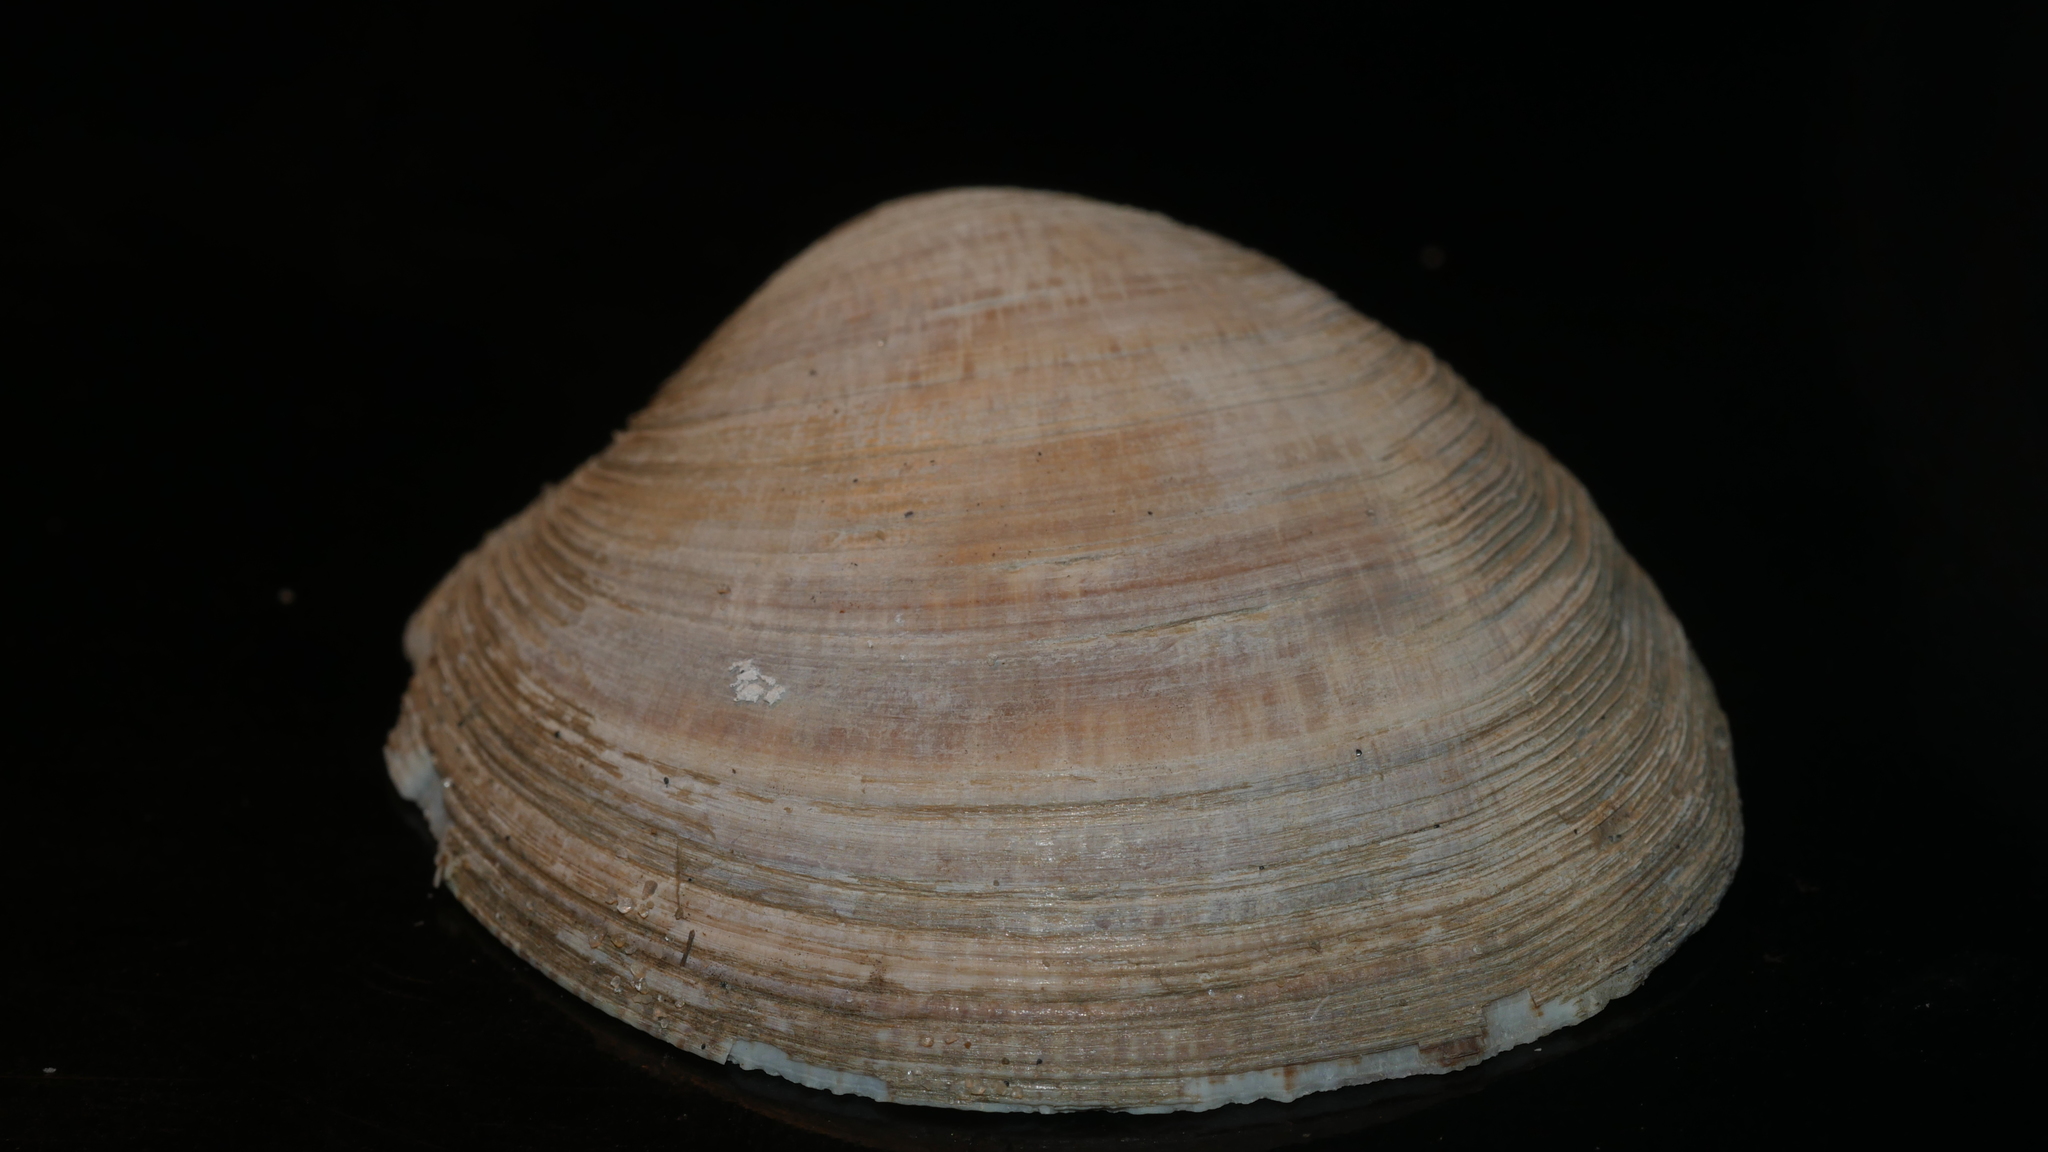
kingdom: Animalia
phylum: Mollusca
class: Bivalvia
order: Venerida
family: Veneridae
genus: Mercenaria
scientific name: Mercenaria mercenaria
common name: American hard-shelled clam
